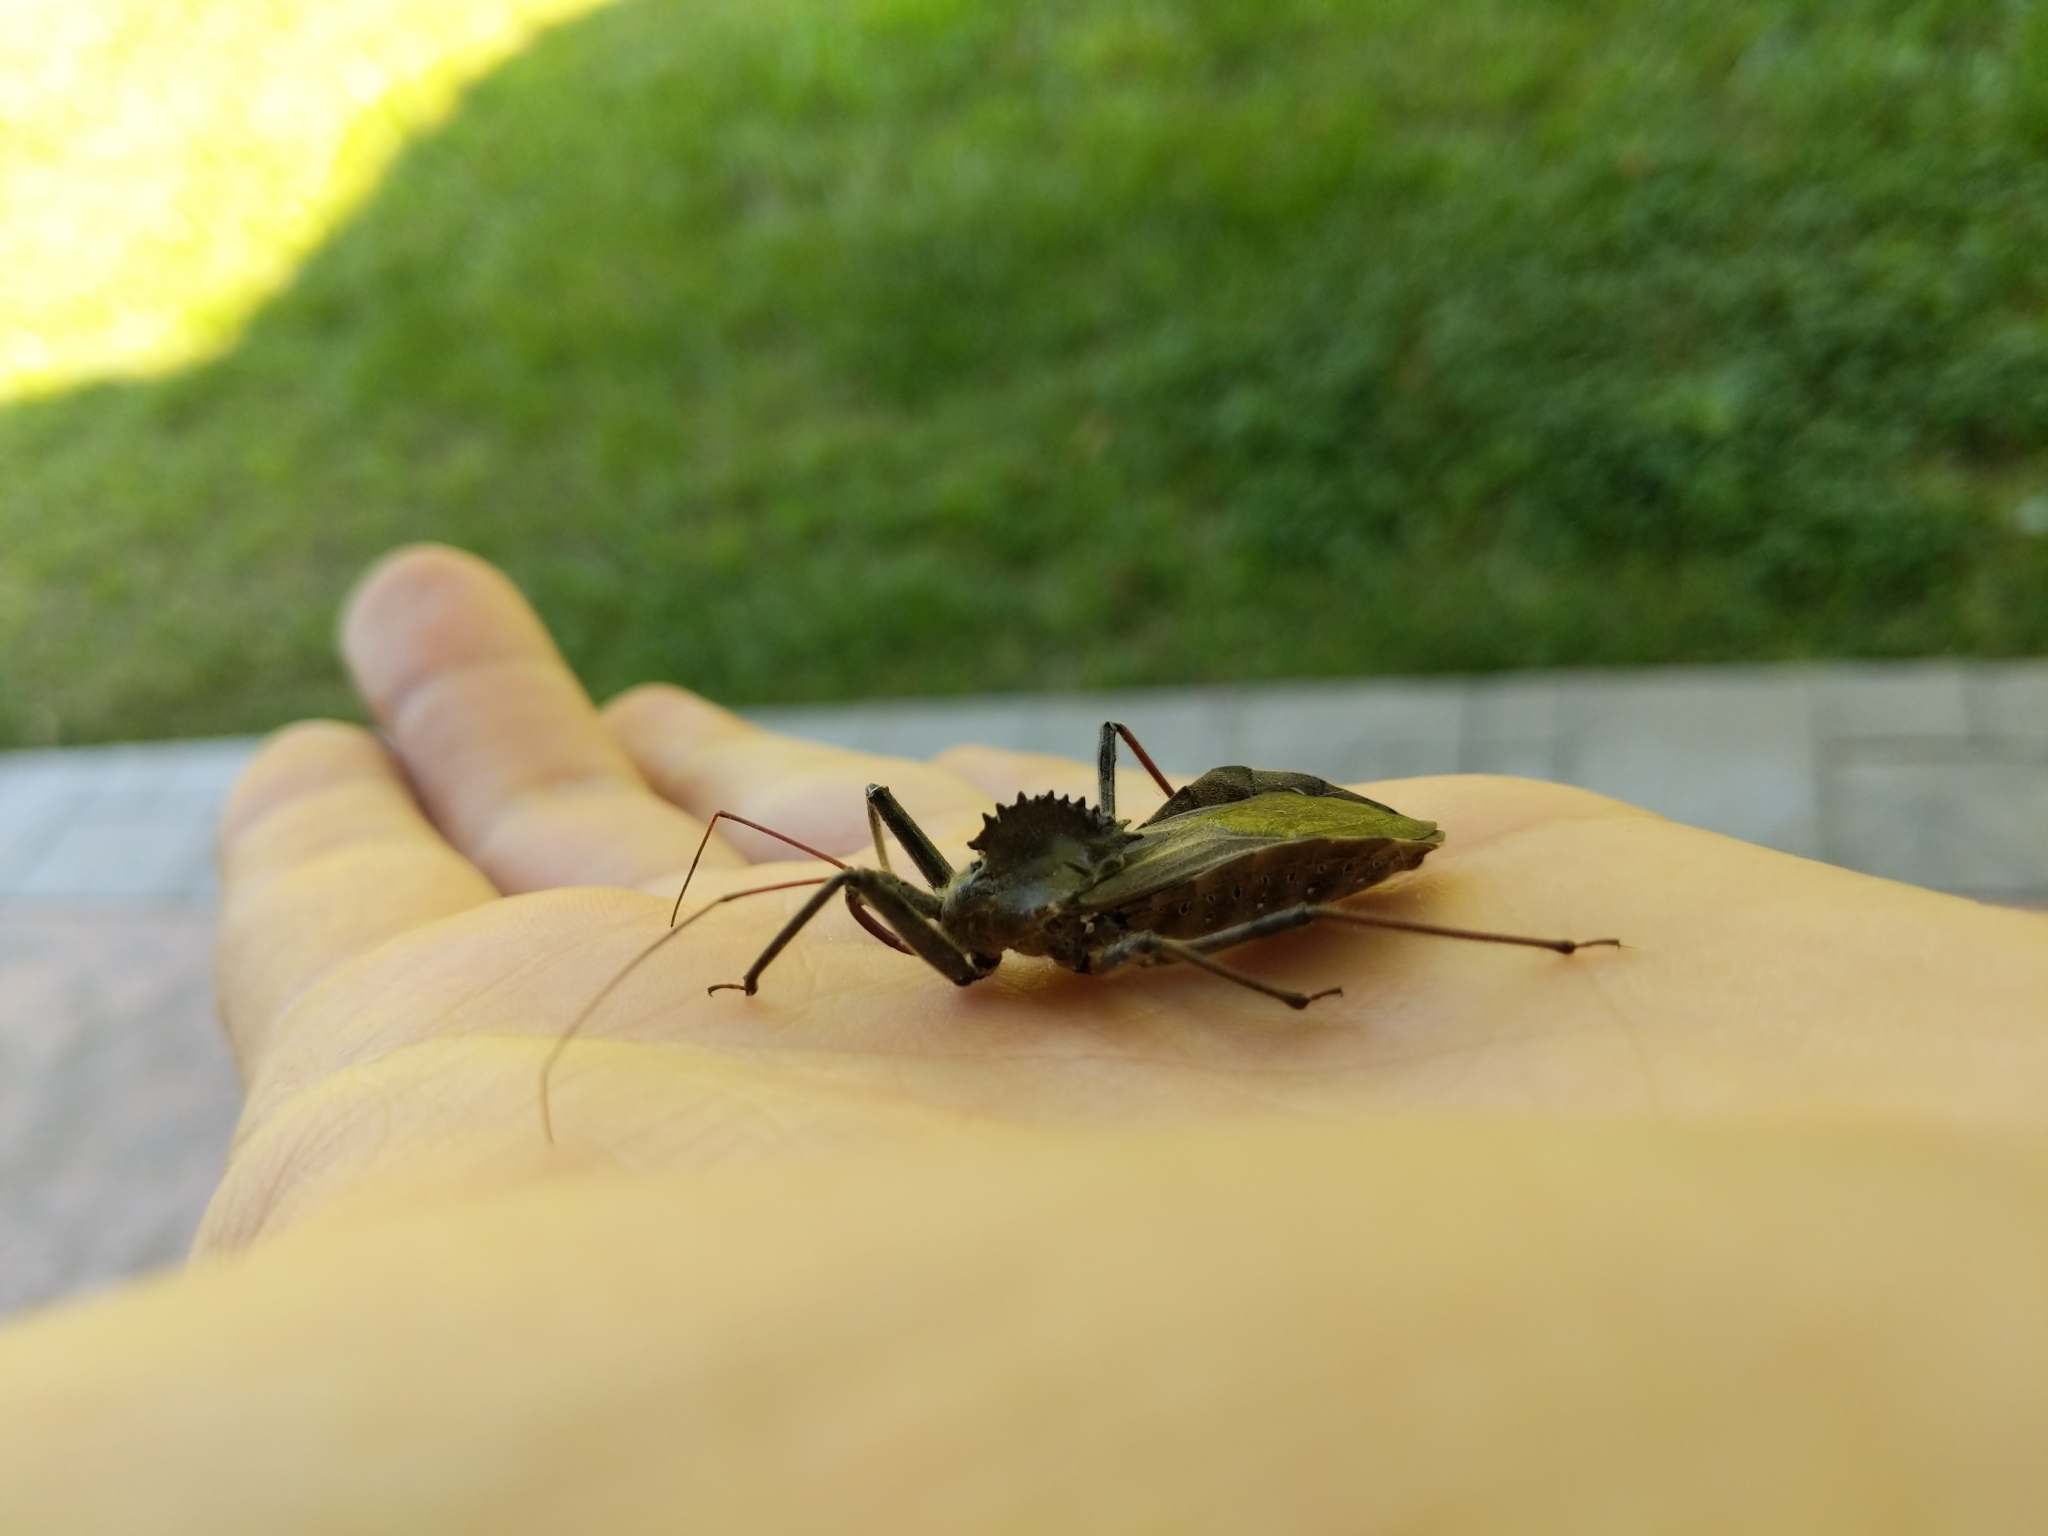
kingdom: Animalia
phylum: Arthropoda
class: Insecta
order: Hemiptera
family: Reduviidae
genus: Arilus
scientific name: Arilus cristatus
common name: North american wheel bug
